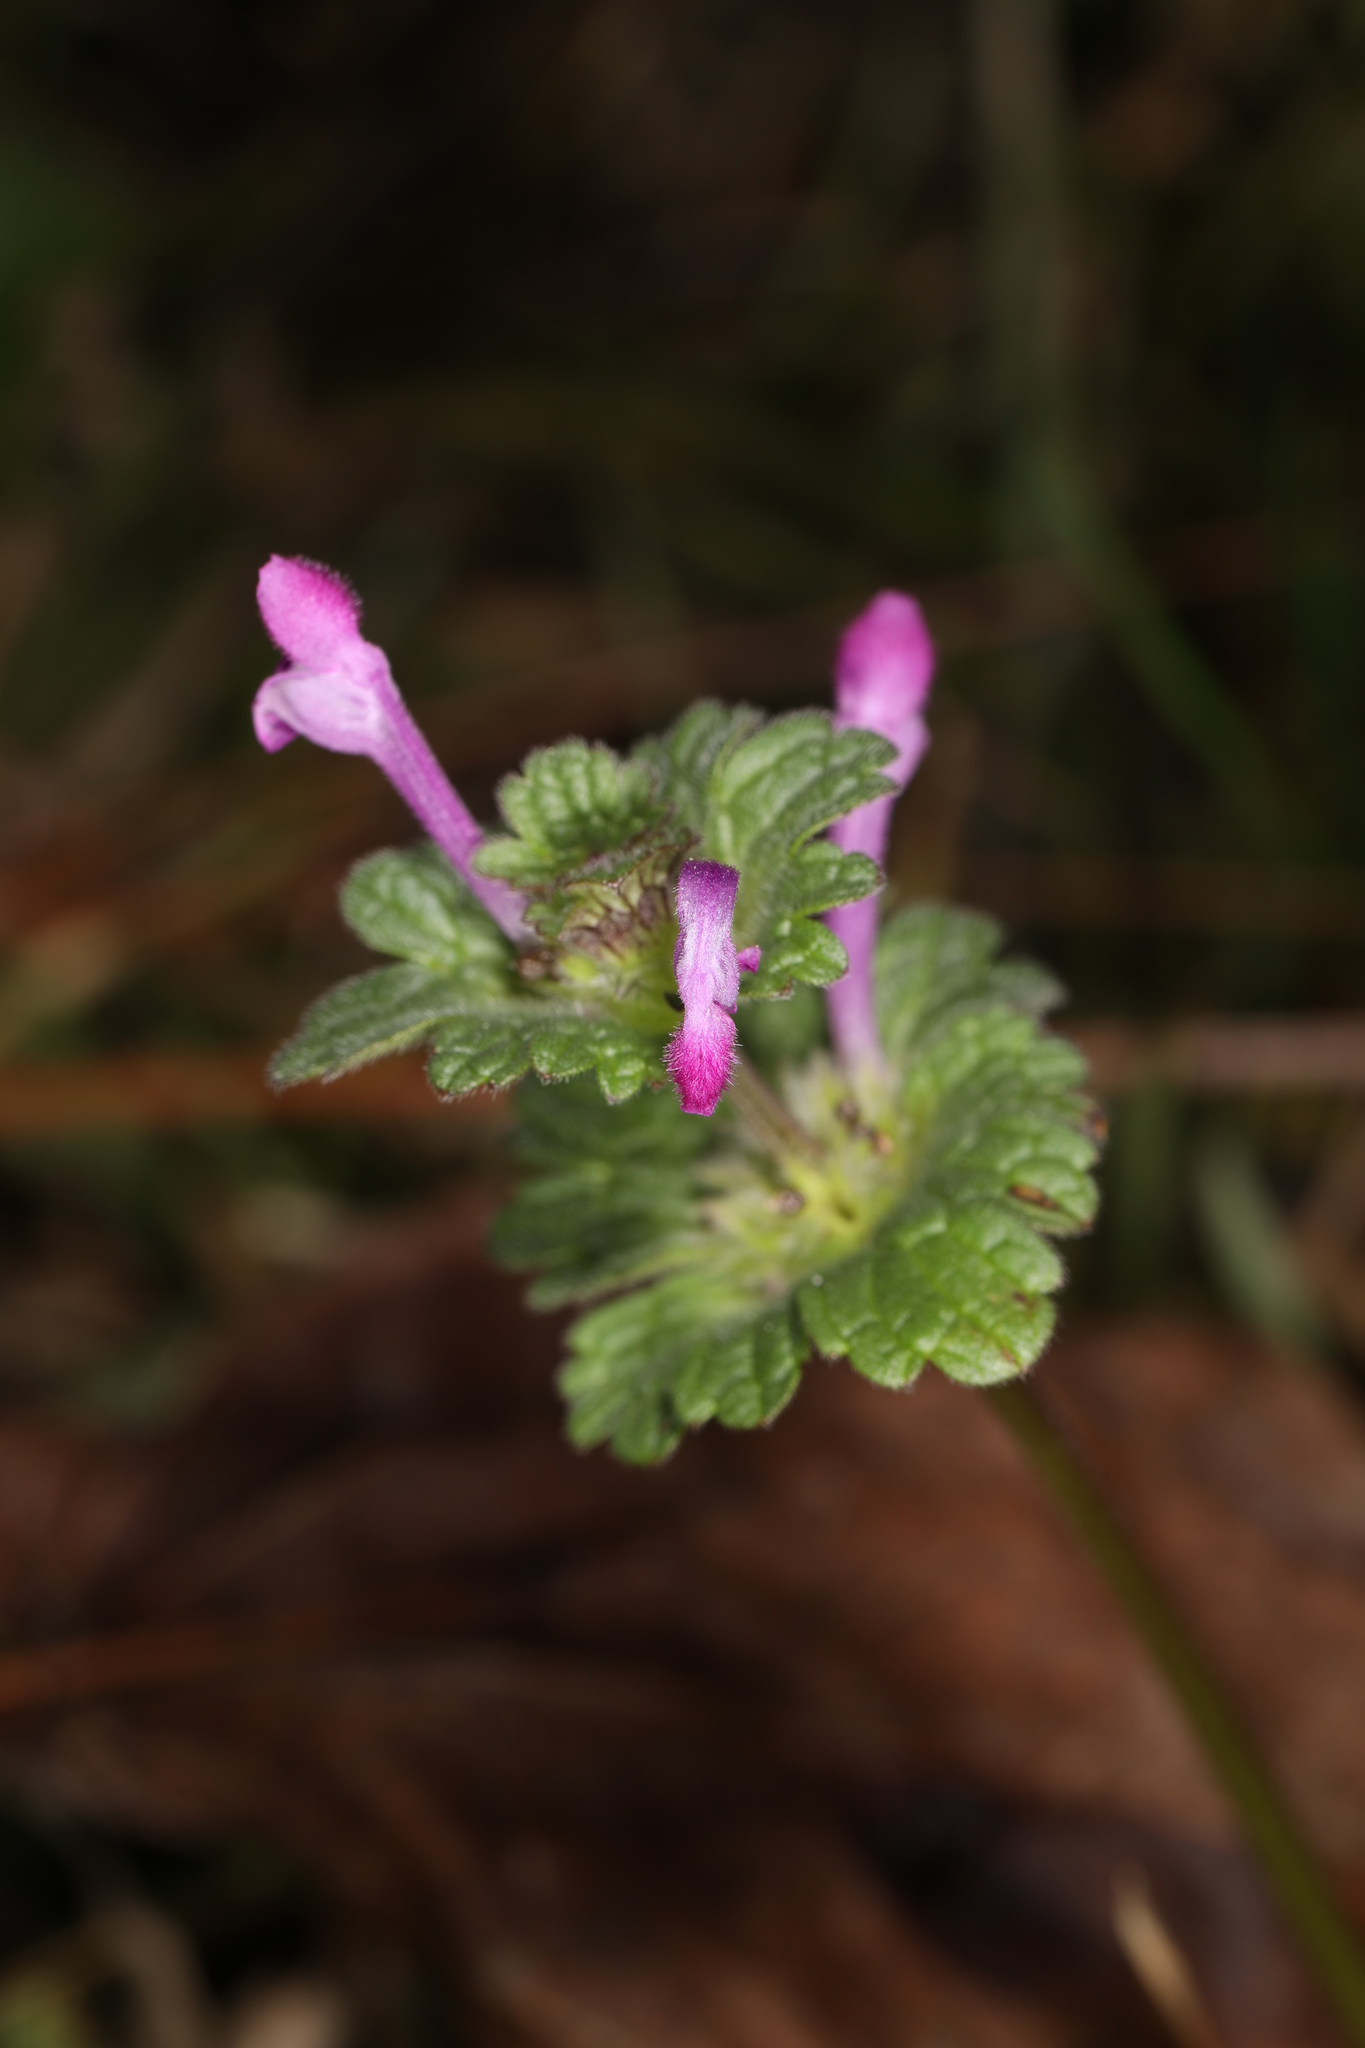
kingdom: Plantae
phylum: Tracheophyta
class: Magnoliopsida
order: Lamiales
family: Lamiaceae
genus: Lamium
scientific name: Lamium amplexicaule
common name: Henbit dead-nettle
